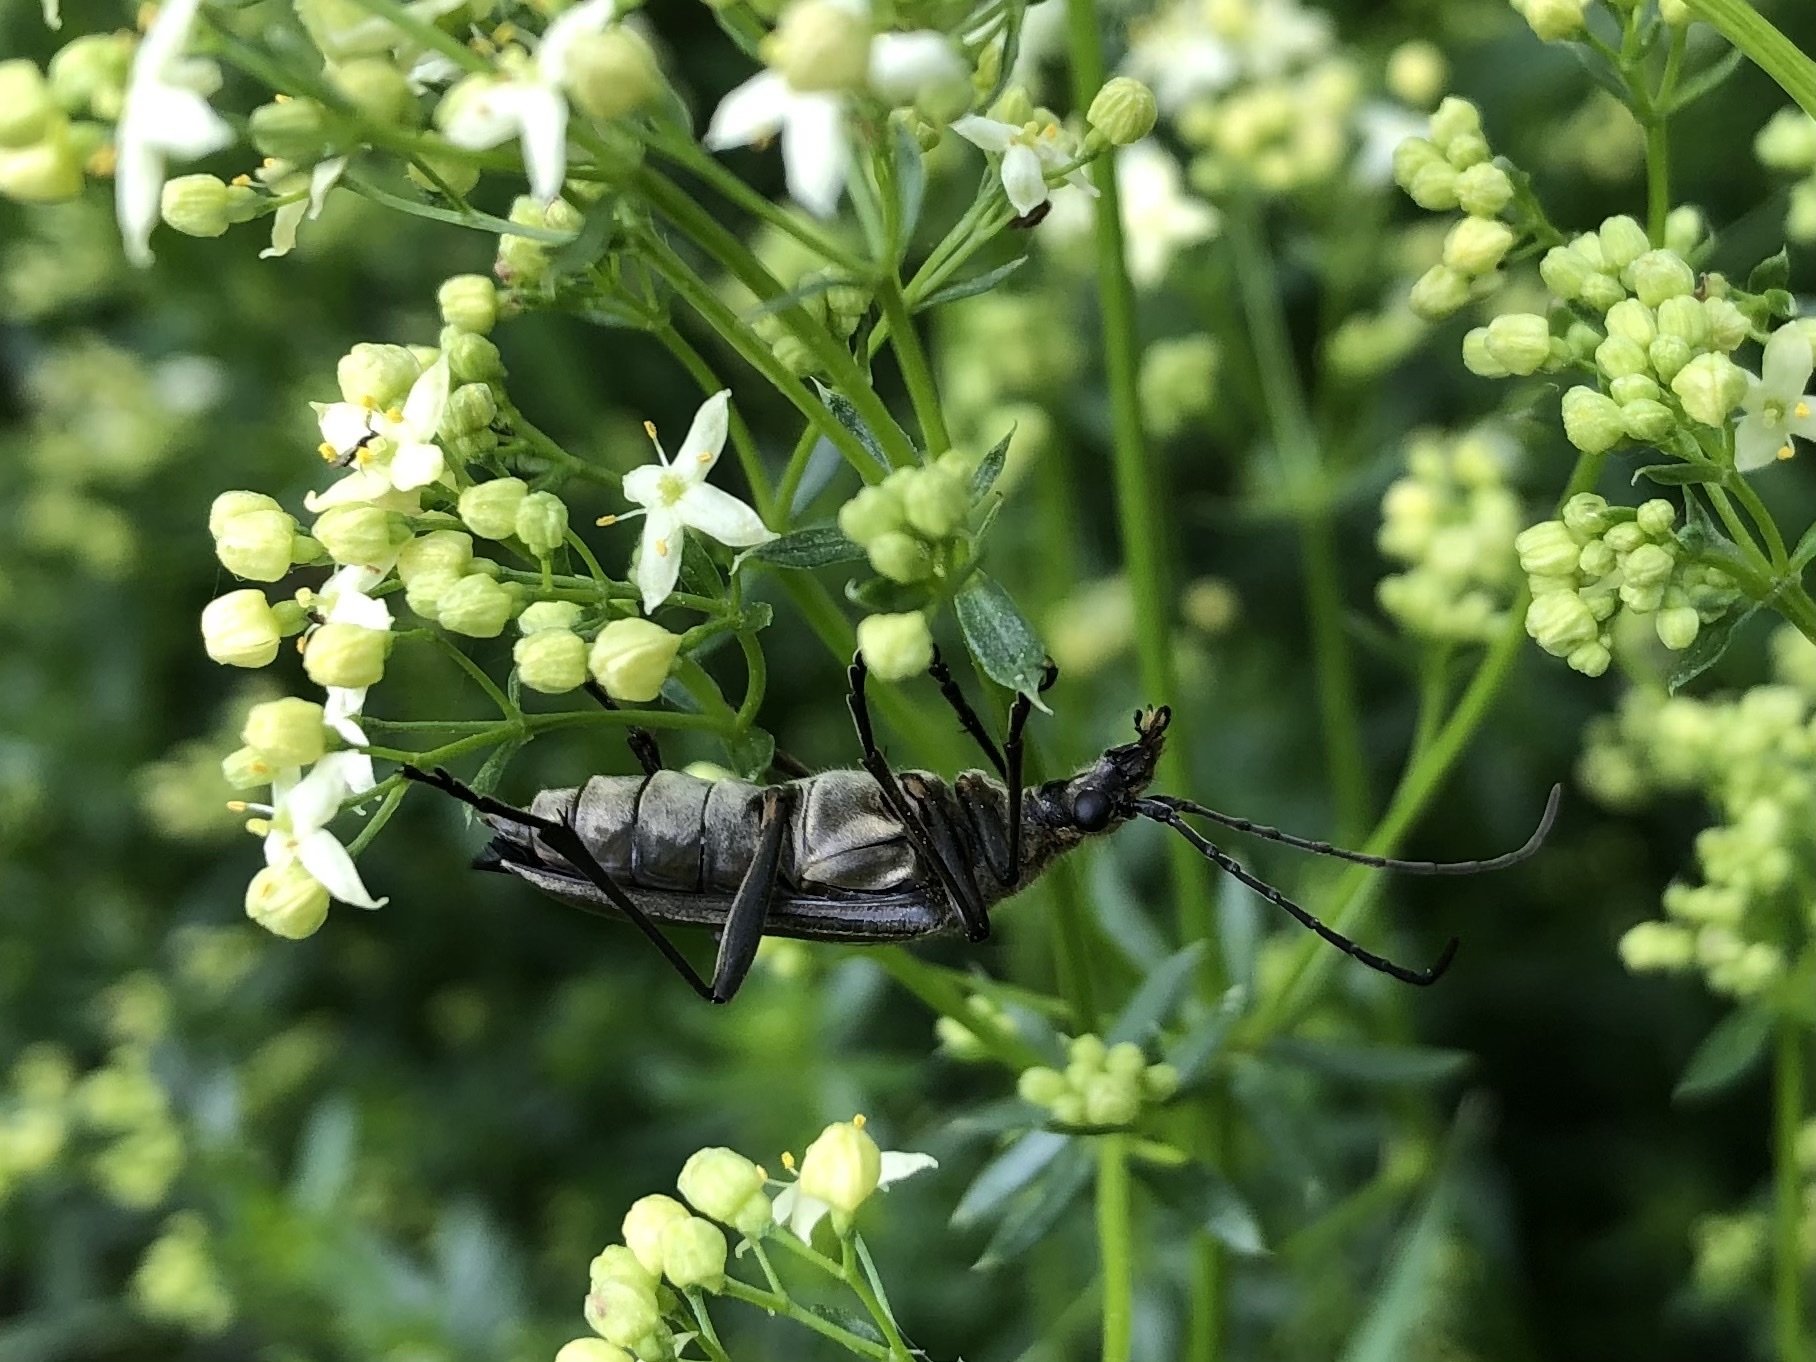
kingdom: Animalia
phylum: Arthropoda
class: Insecta
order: Coleoptera
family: Cerambycidae
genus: Stenocorus
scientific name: Stenocorus meridianus
